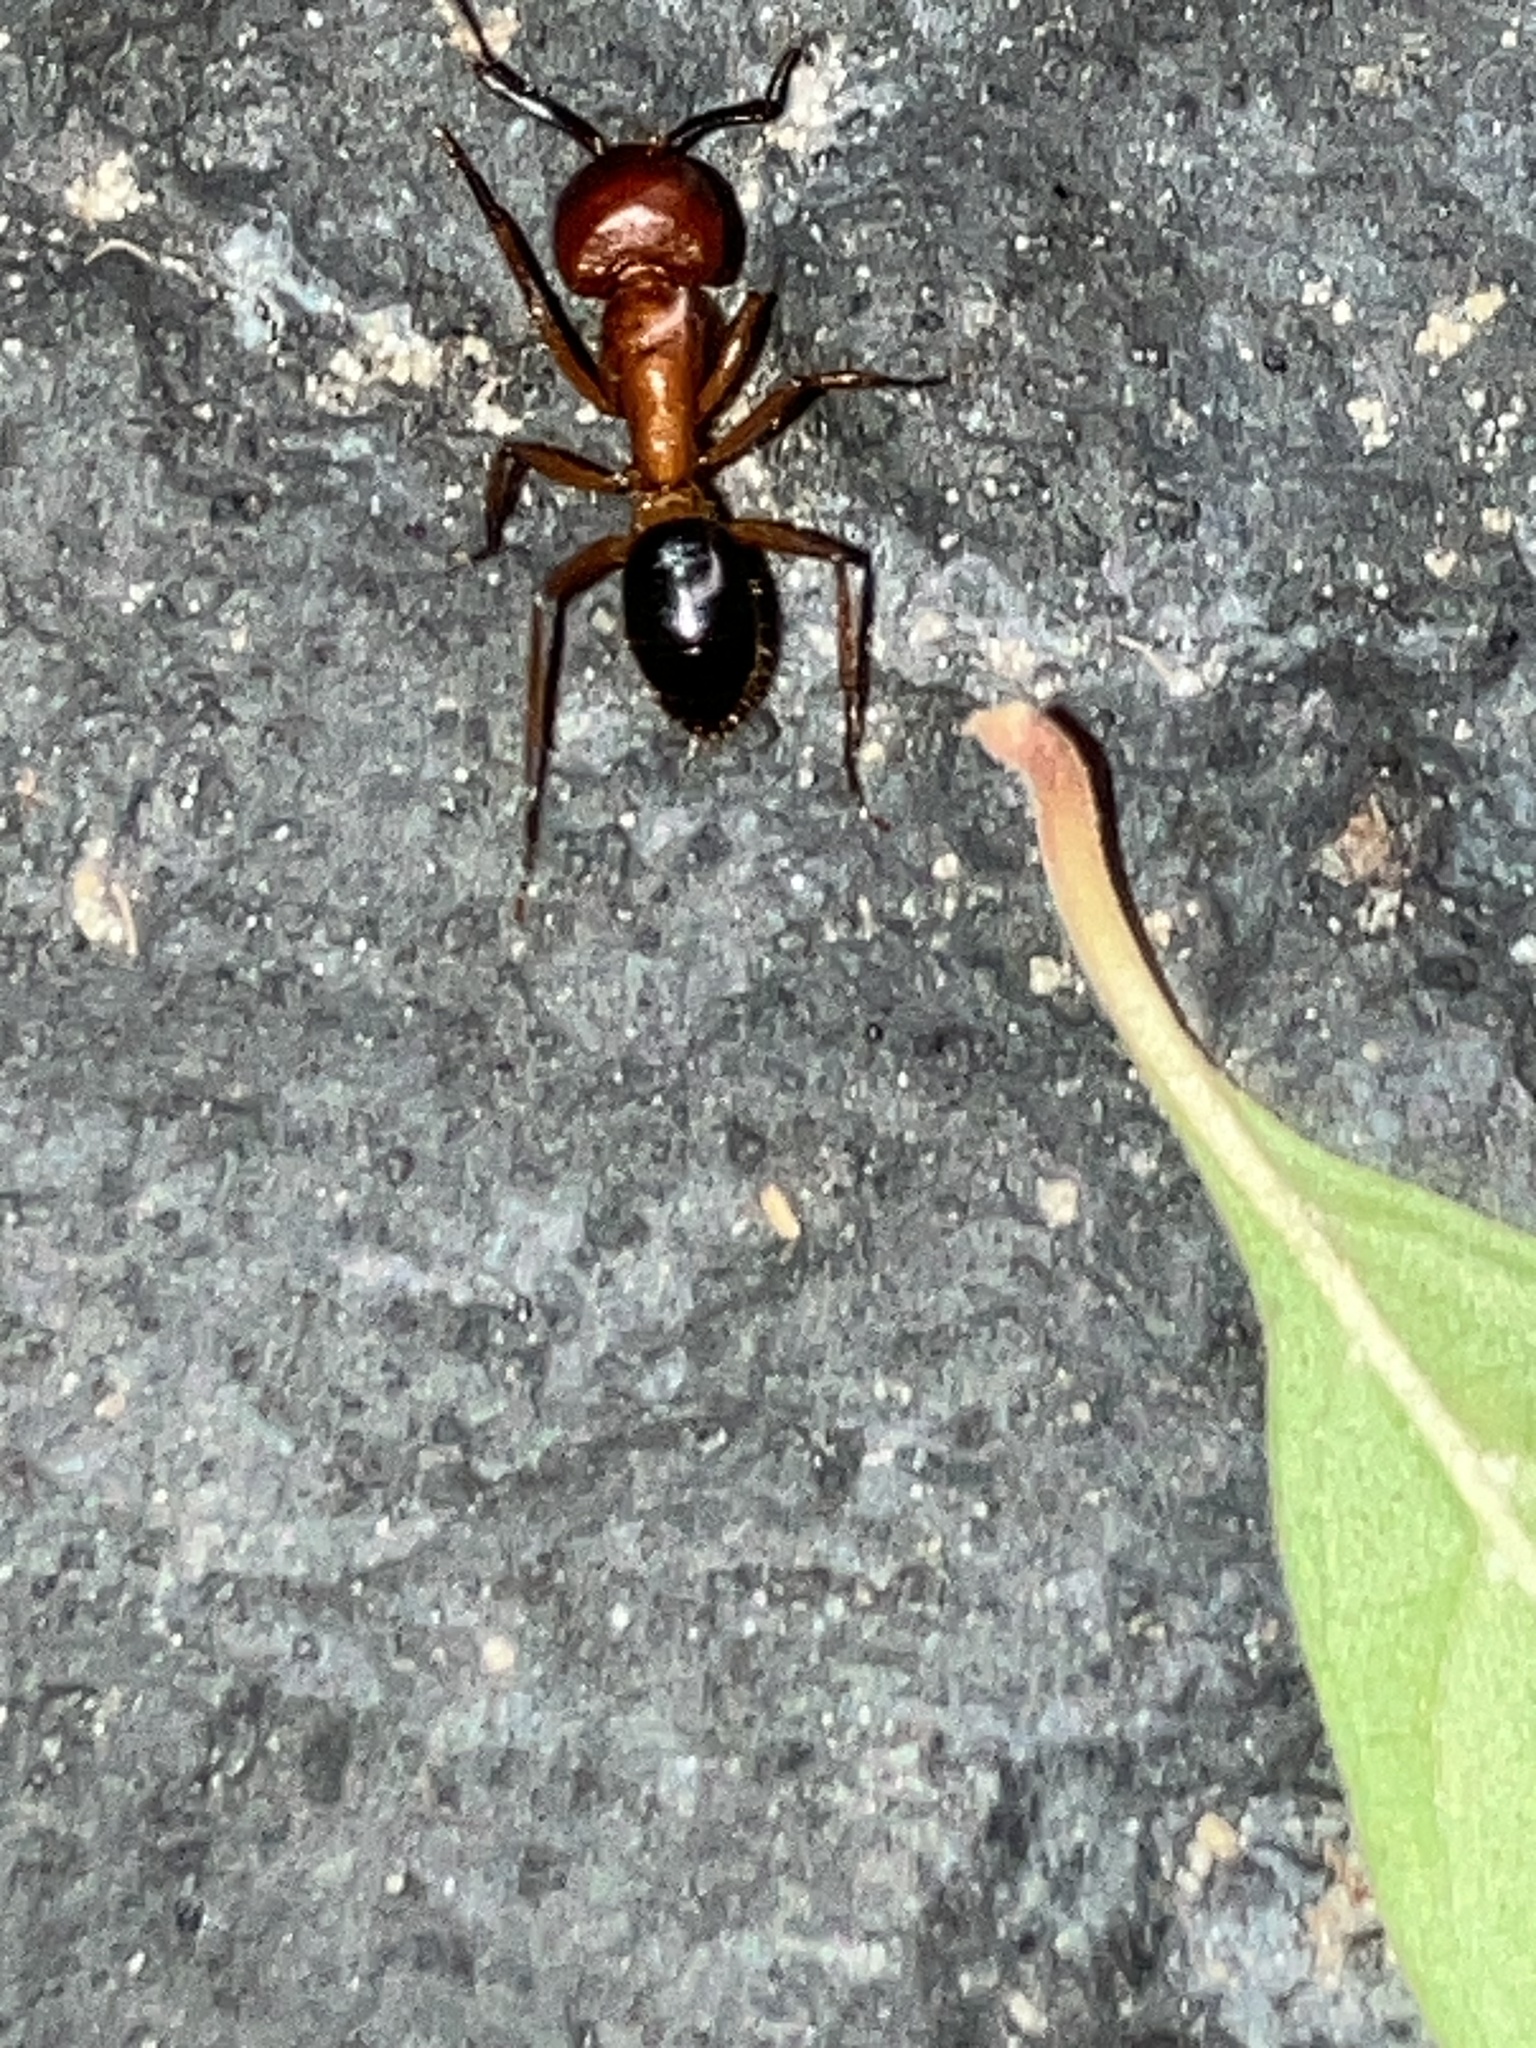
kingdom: Animalia
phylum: Arthropoda
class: Insecta
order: Hymenoptera
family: Formicidae
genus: Camponotus
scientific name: Camponotus floridanus
